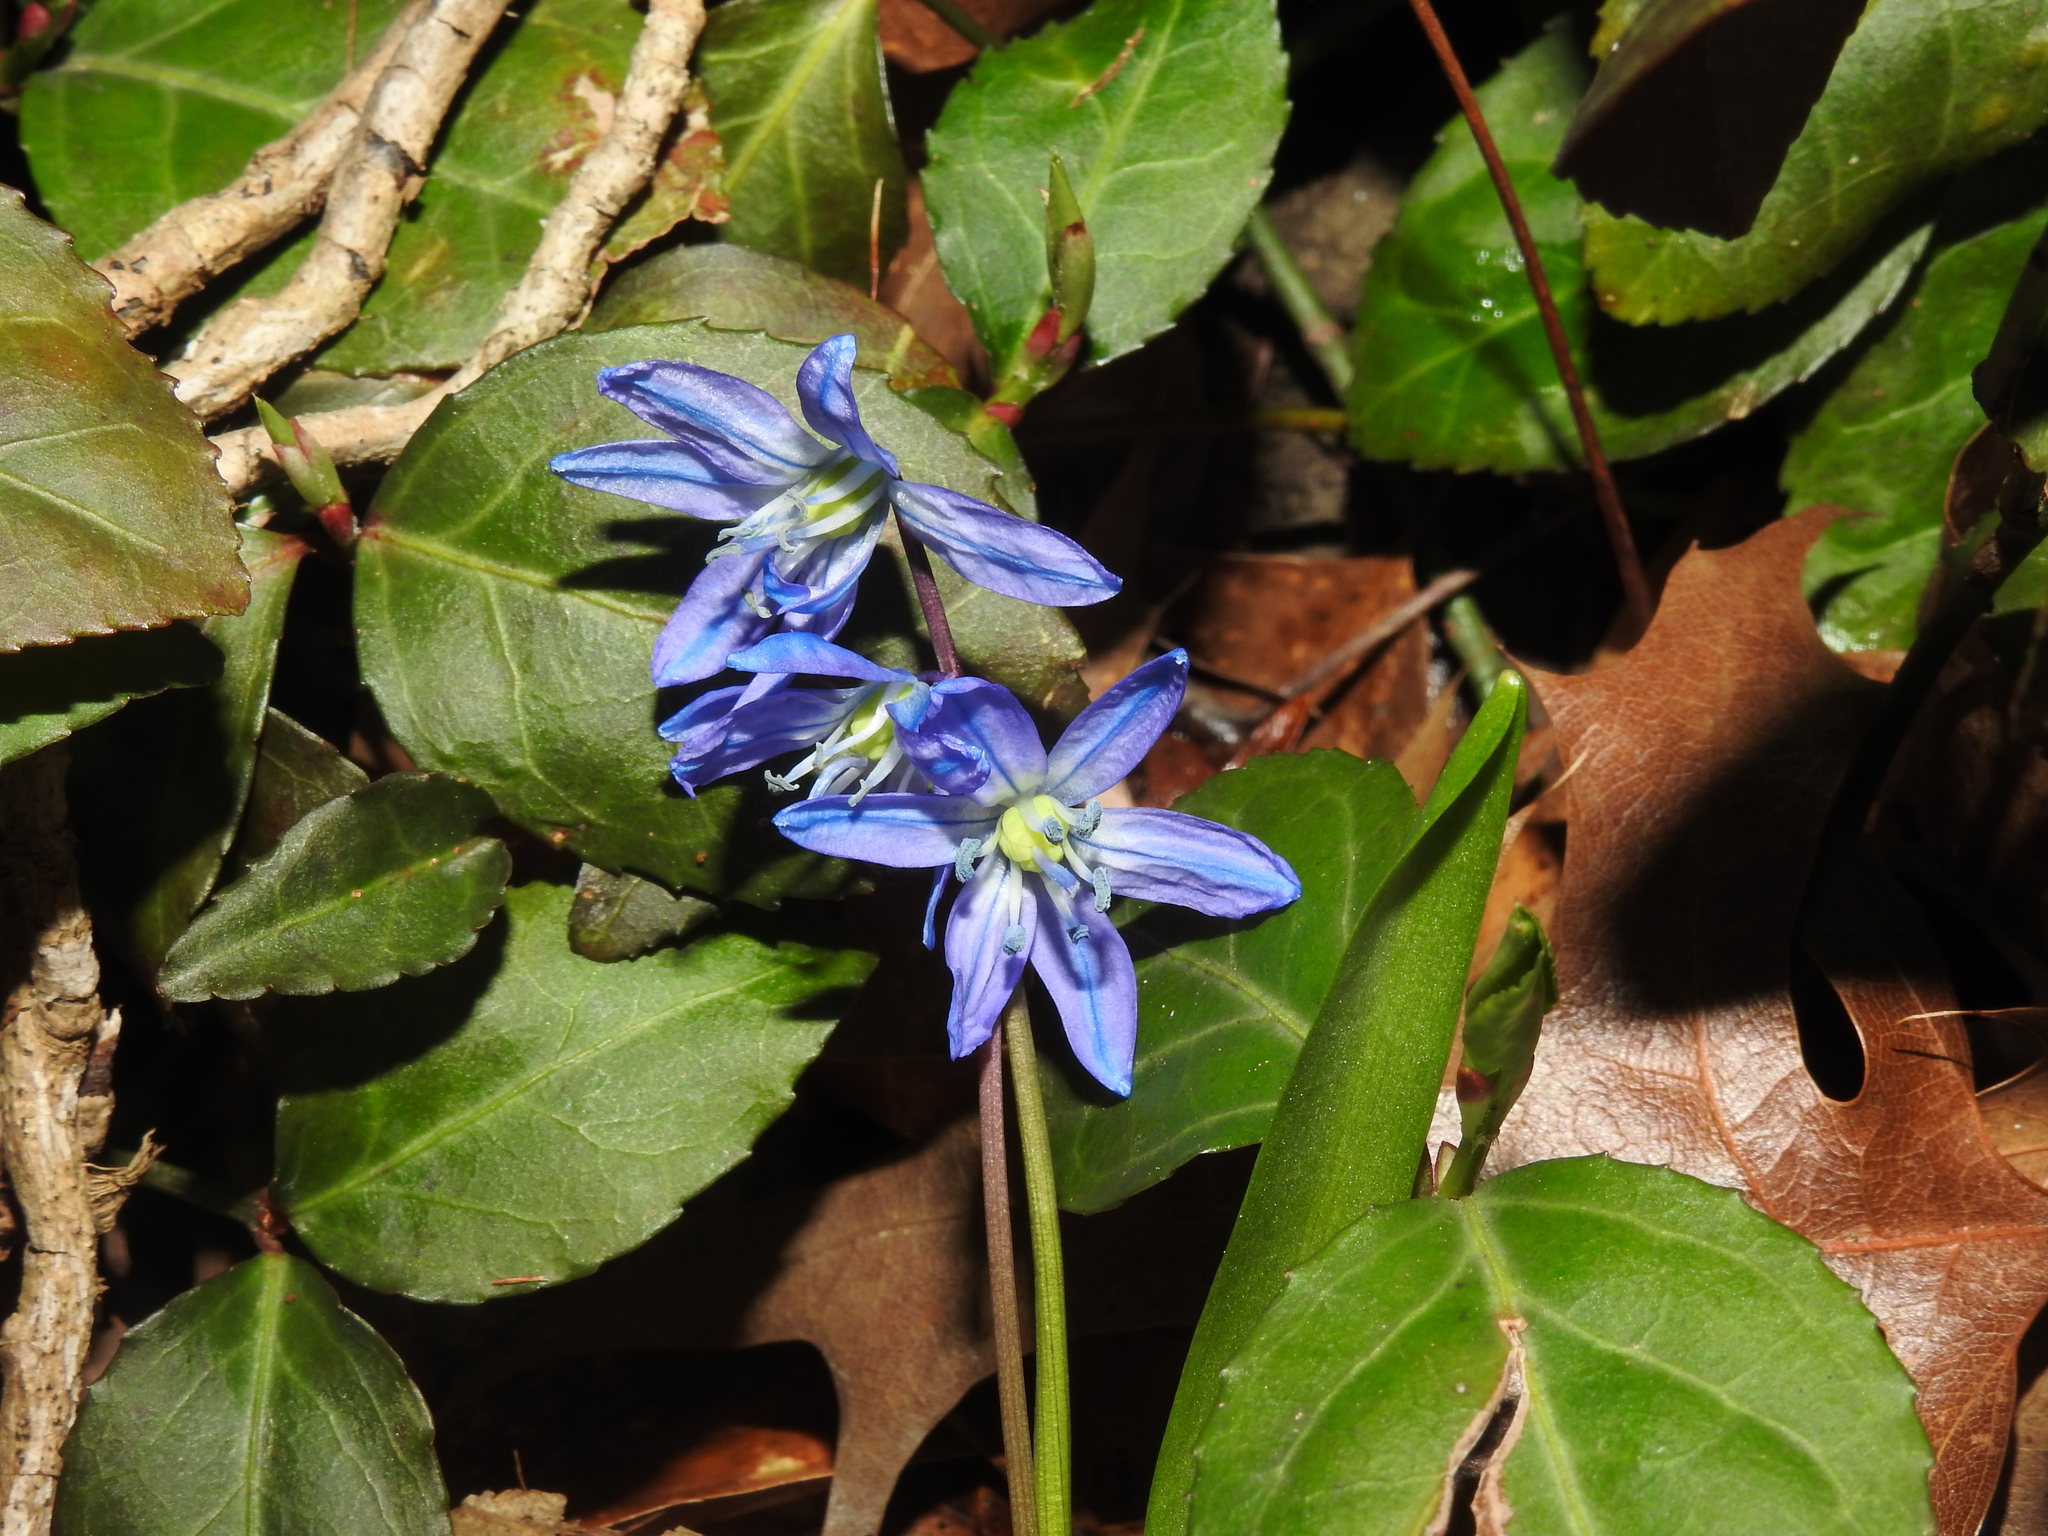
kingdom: Plantae
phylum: Tracheophyta
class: Liliopsida
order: Asparagales
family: Asparagaceae
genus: Scilla
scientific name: Scilla siberica
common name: Siberian squill
